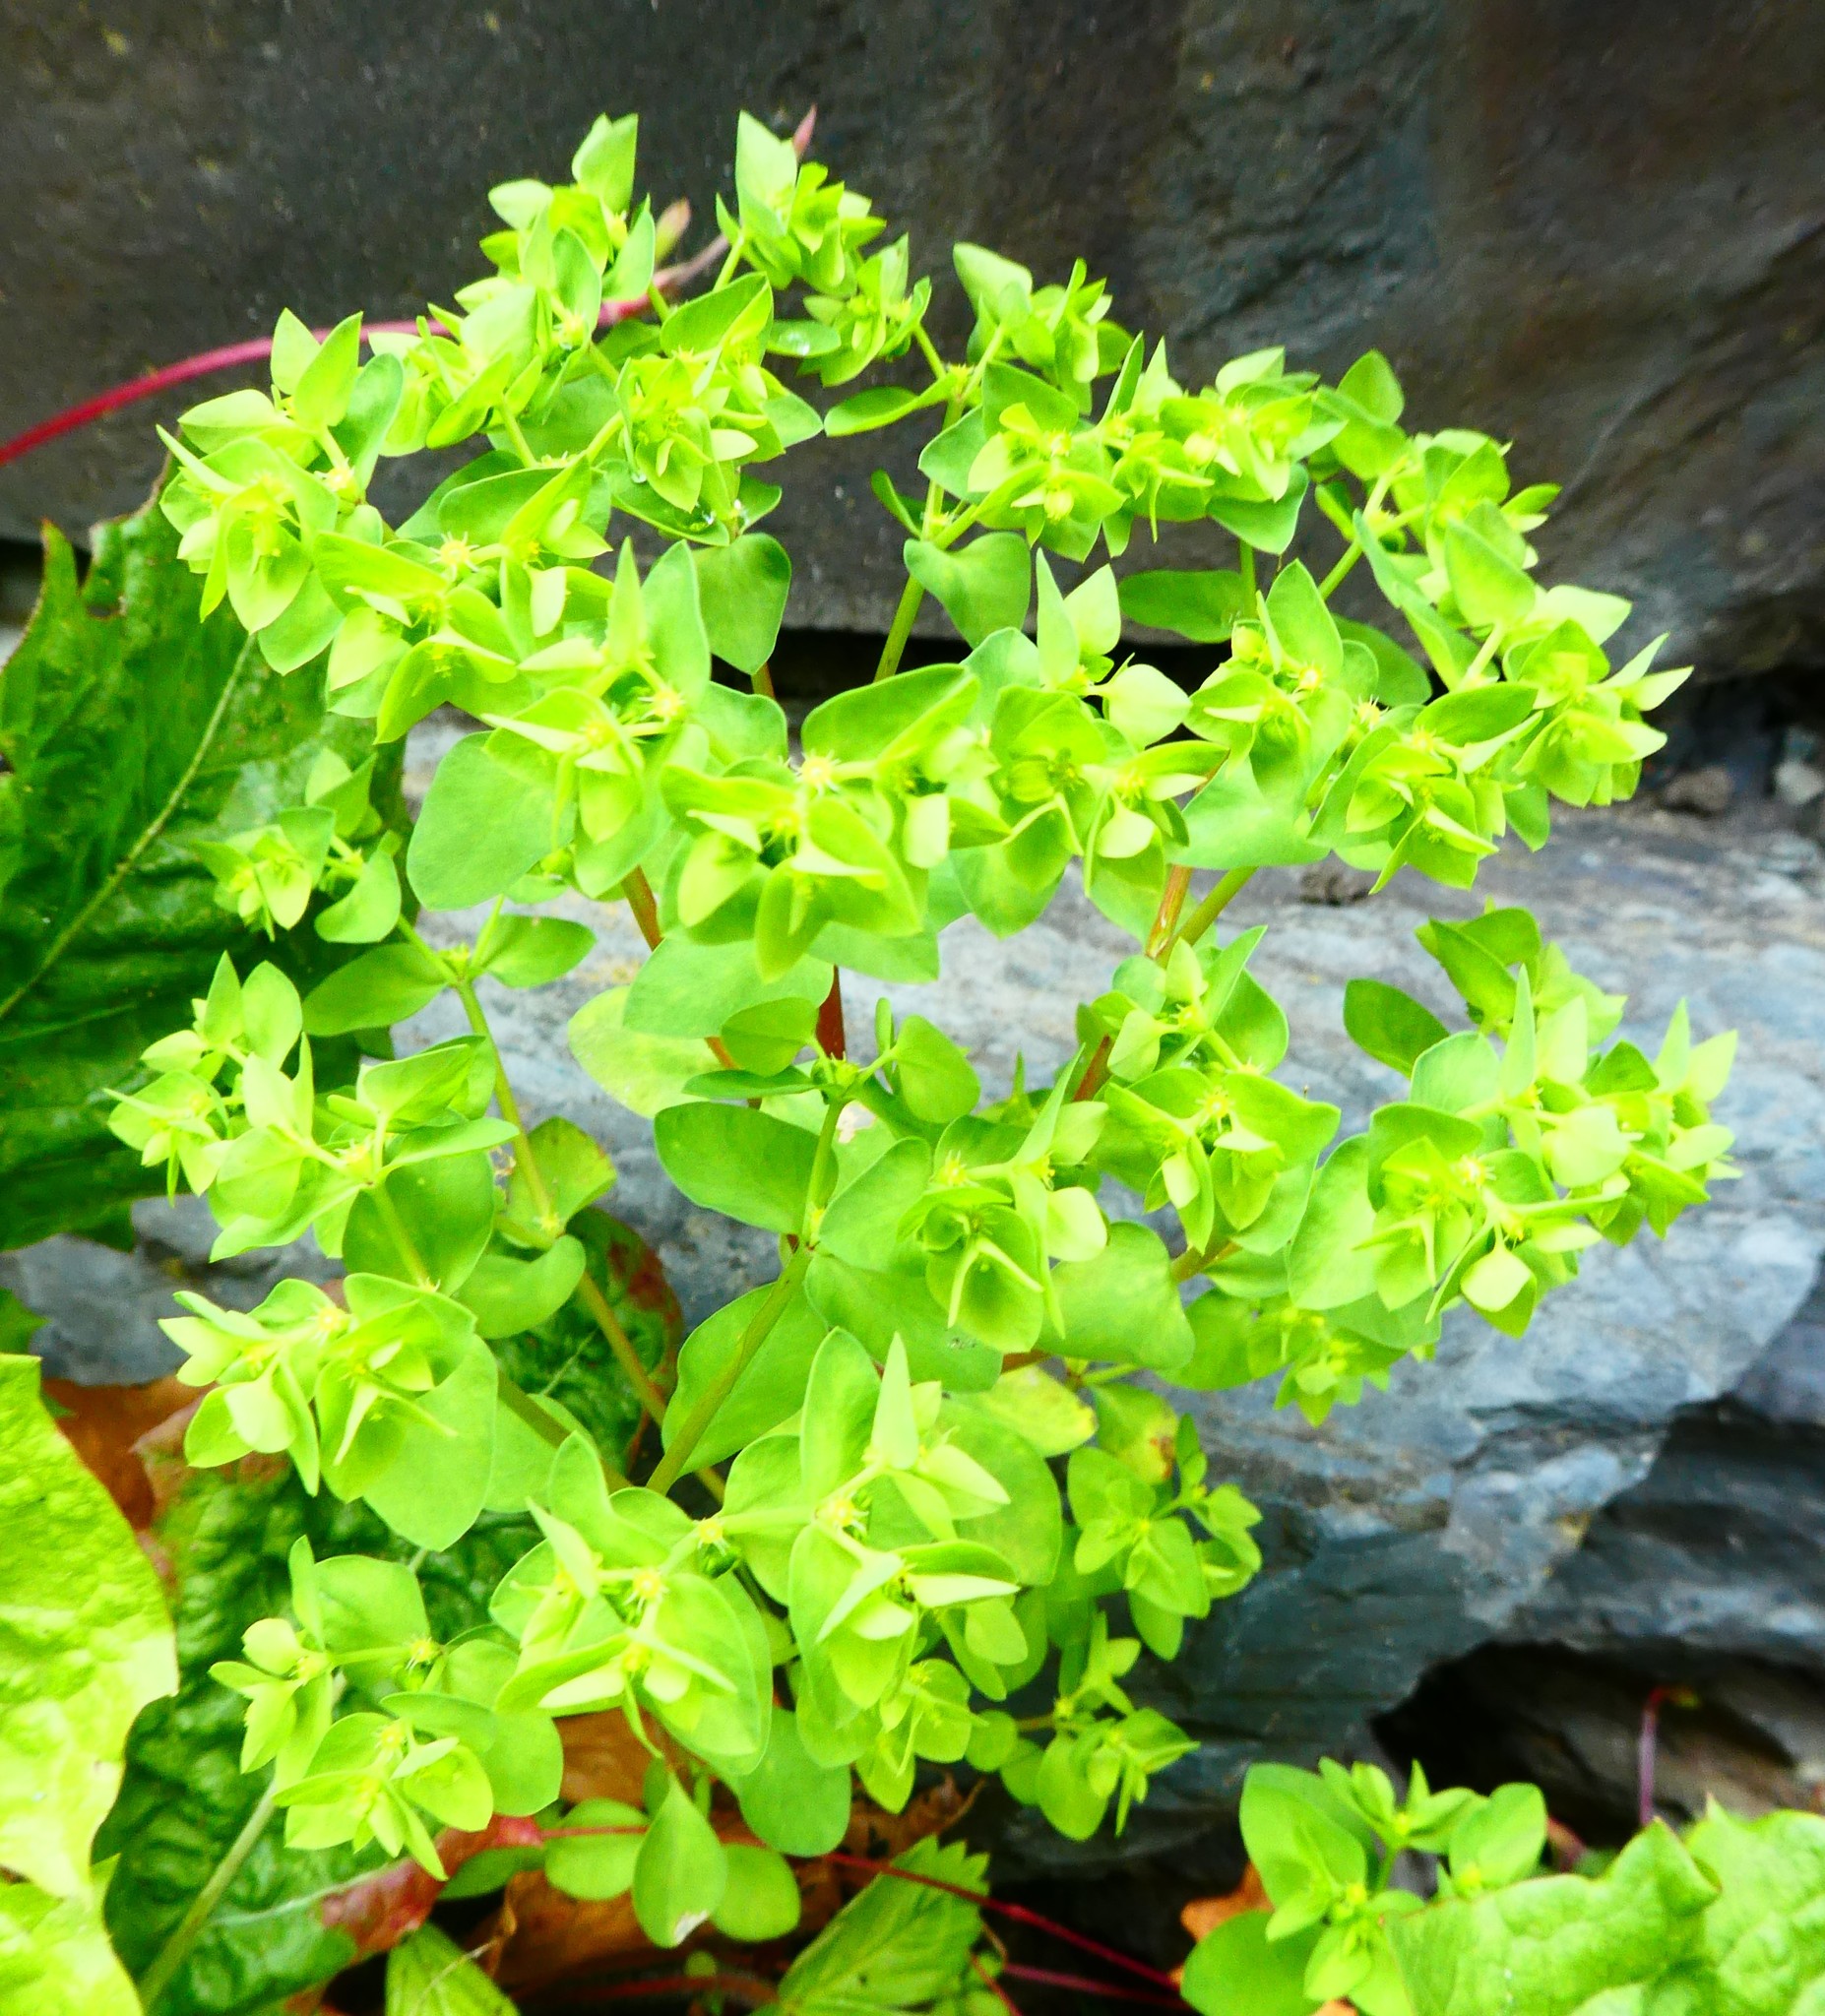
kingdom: Plantae
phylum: Tracheophyta
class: Magnoliopsida
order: Malpighiales
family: Euphorbiaceae
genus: Euphorbia
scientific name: Euphorbia peplus
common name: Petty spurge
